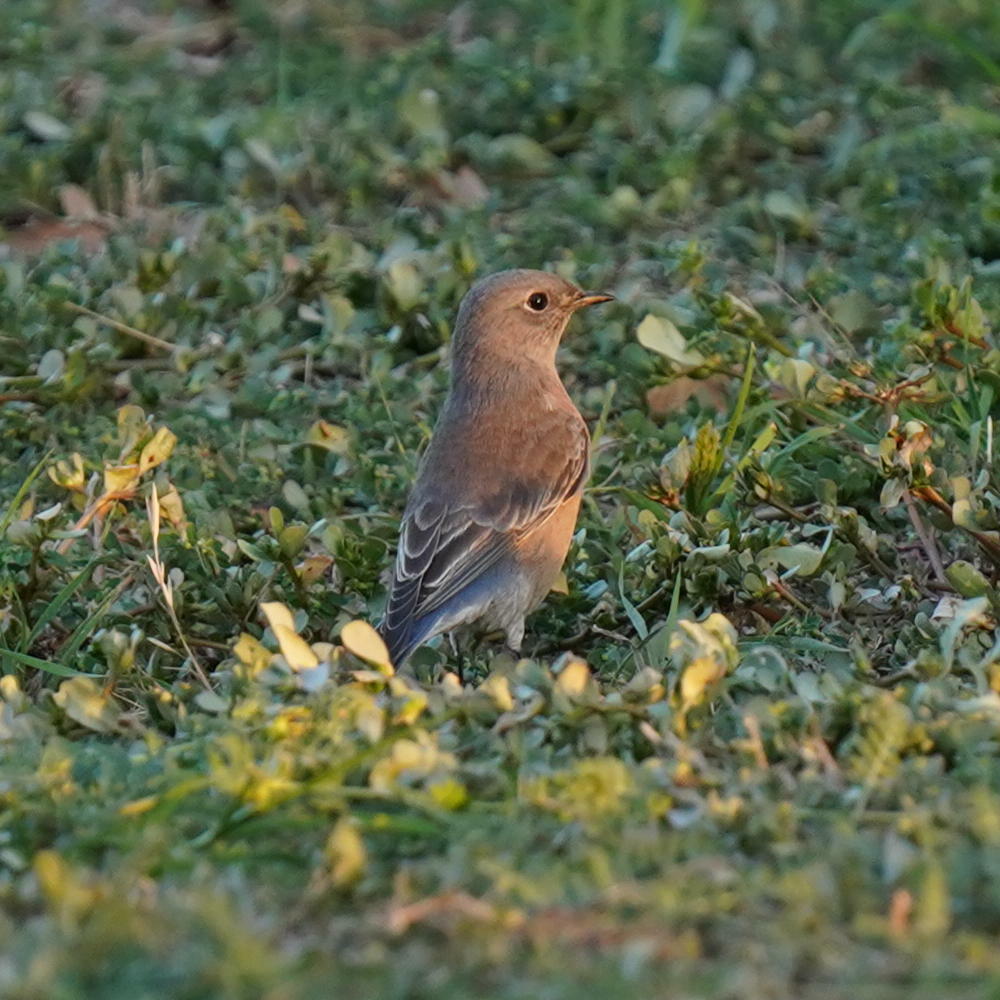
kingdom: Animalia
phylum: Chordata
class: Aves
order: Passeriformes
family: Turdidae
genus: Sialia
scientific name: Sialia mexicana
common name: Western bluebird
